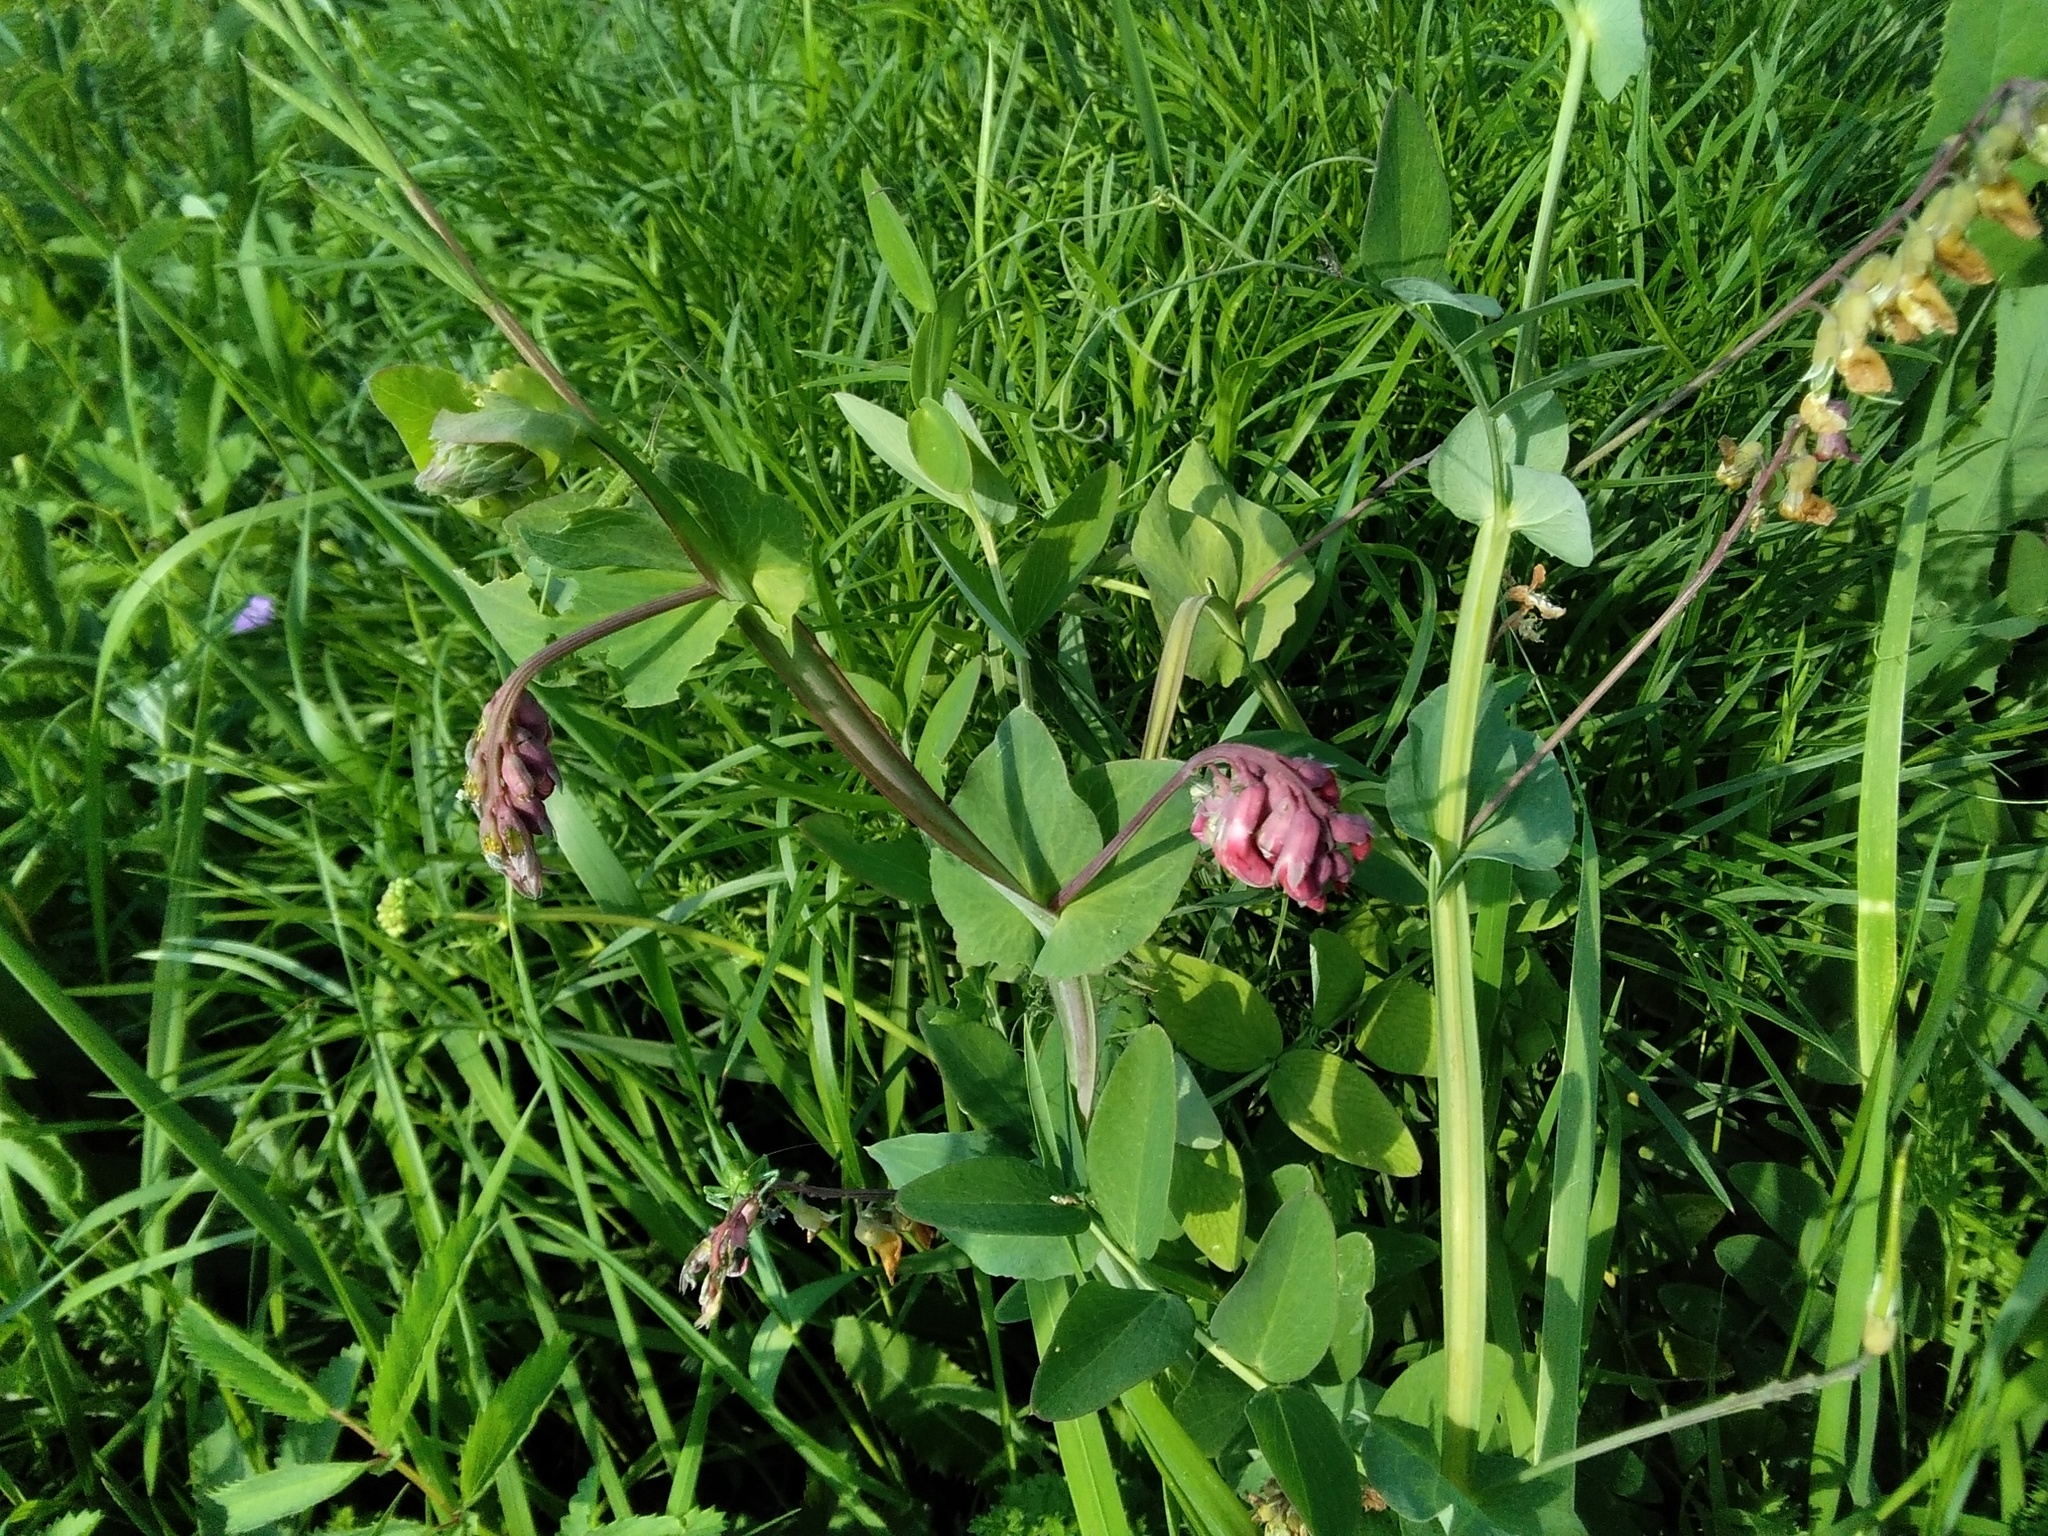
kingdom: Plantae
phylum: Tracheophyta
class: Magnoliopsida
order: Fabales
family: Fabaceae
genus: Lathyrus
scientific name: Lathyrus pisiformis
